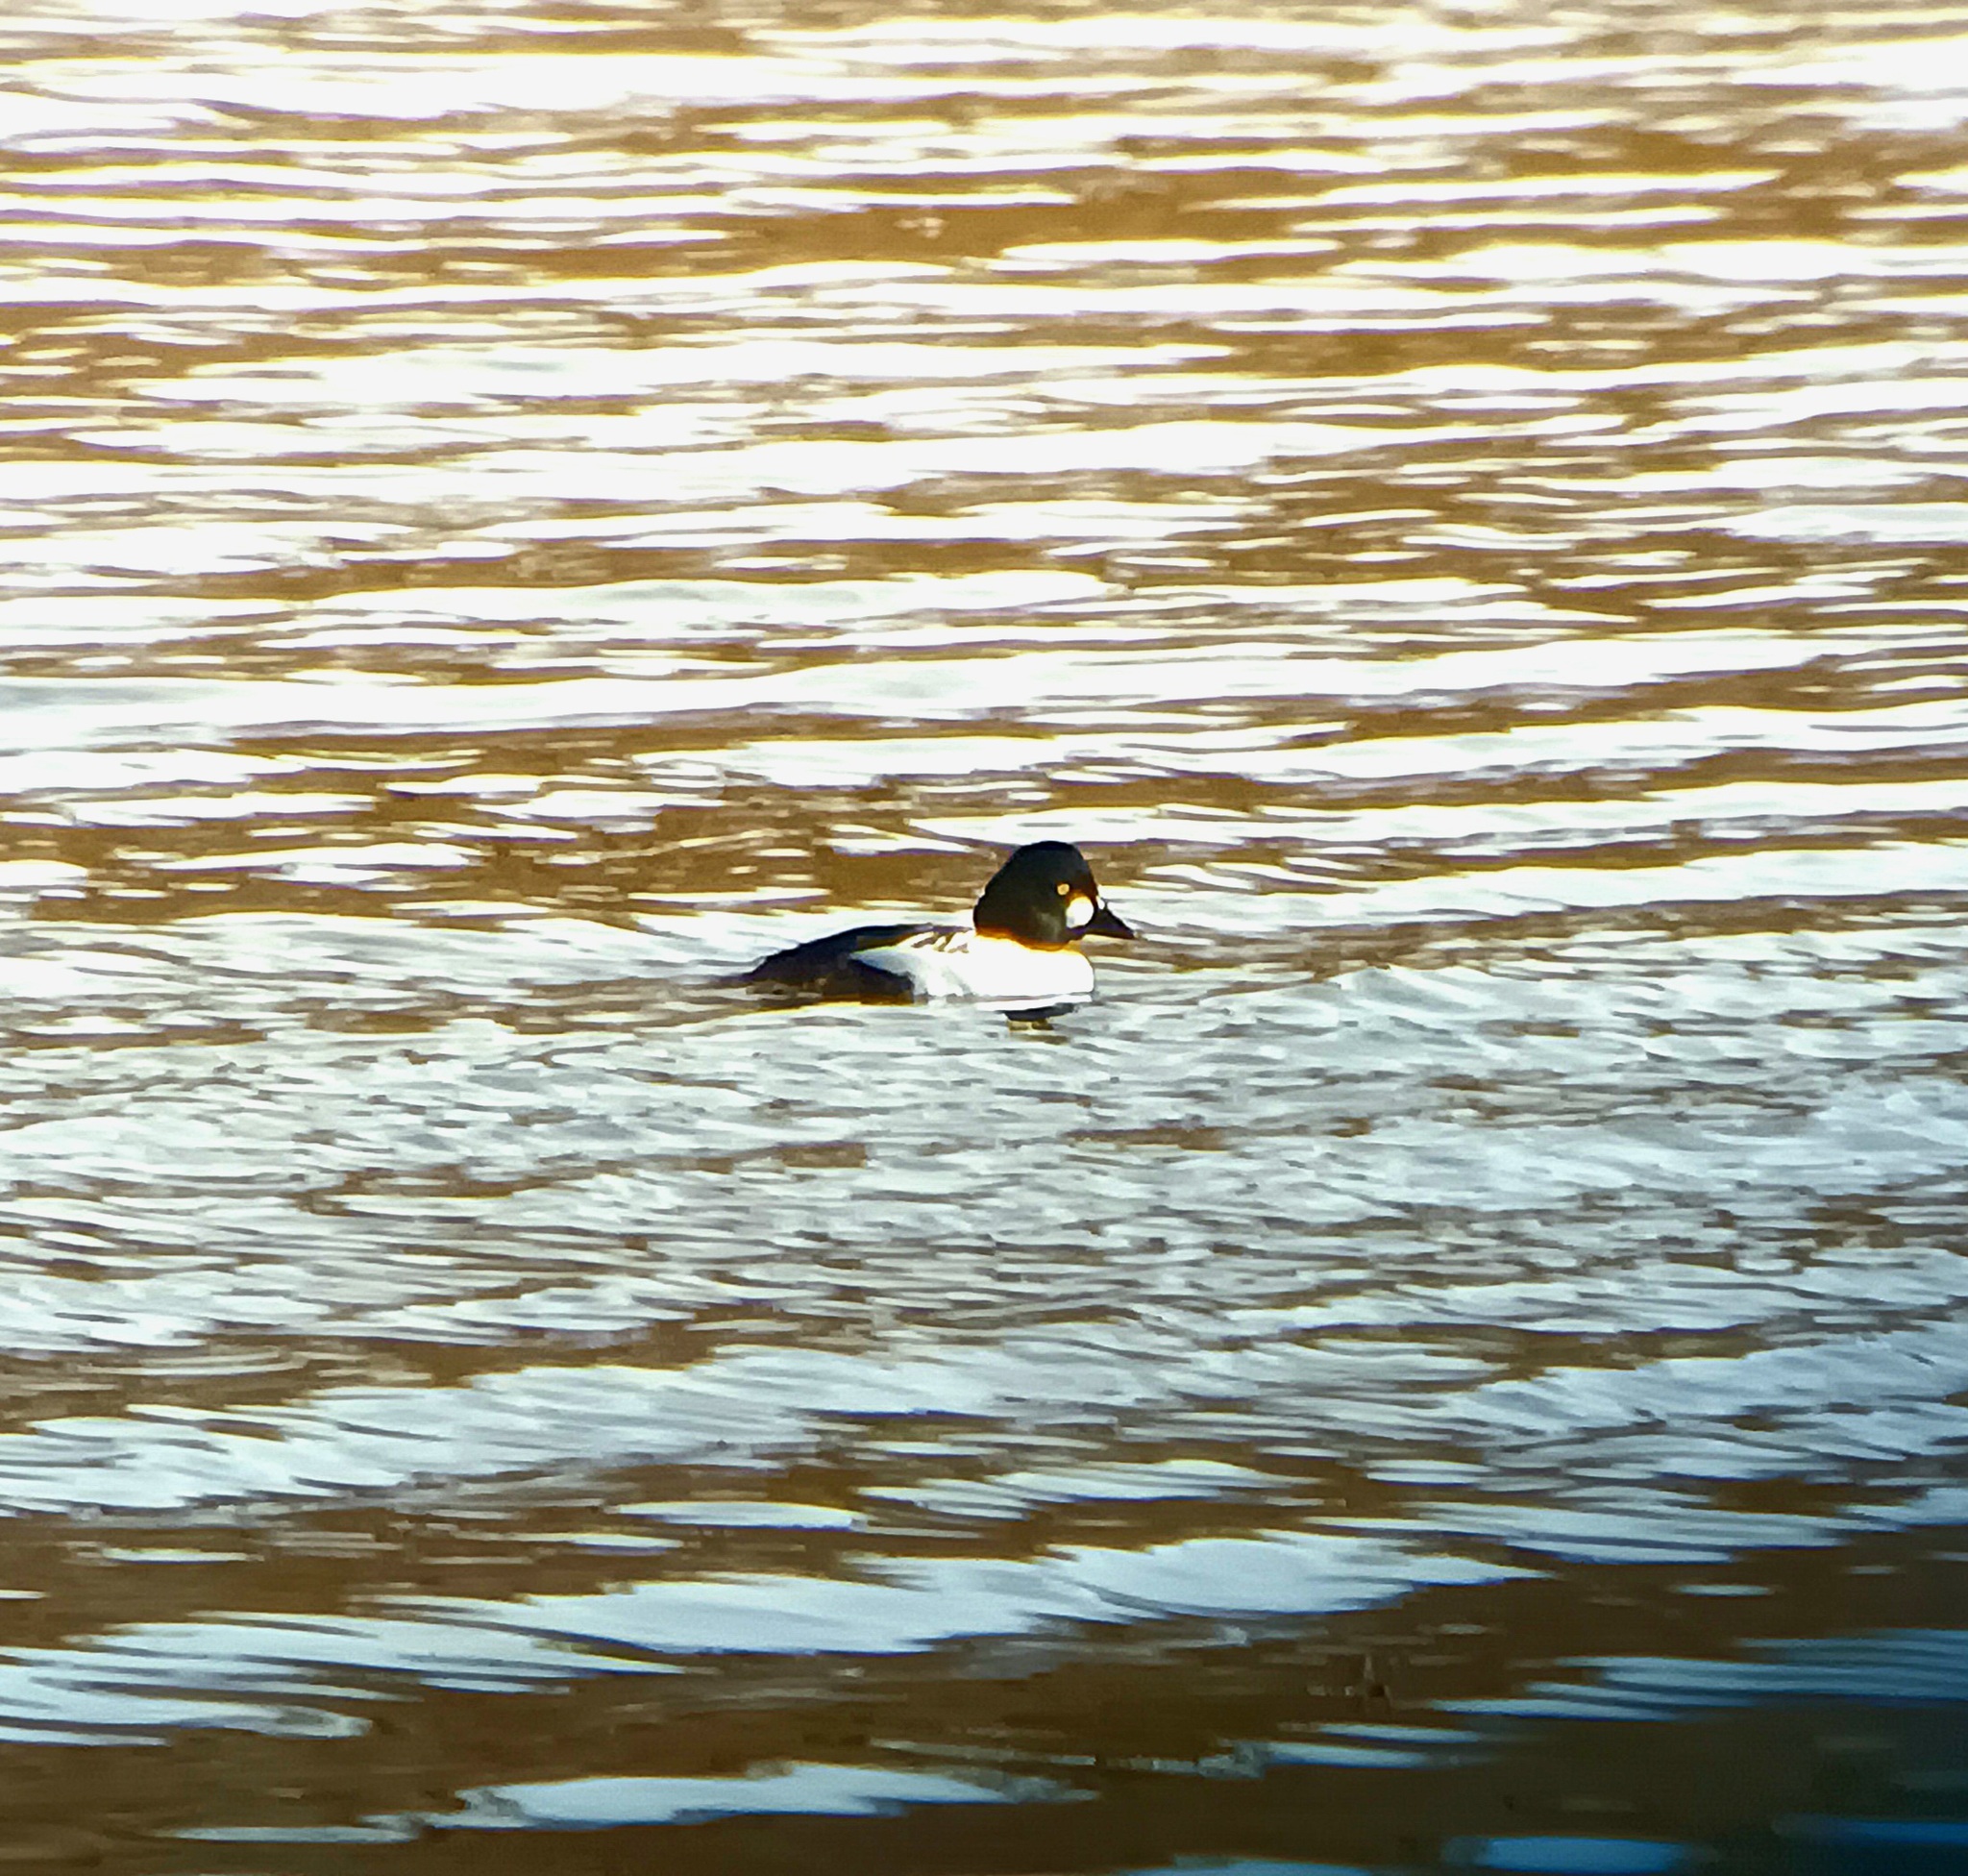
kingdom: Animalia
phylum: Chordata
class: Aves
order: Anseriformes
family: Anatidae
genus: Bucephala
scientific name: Bucephala clangula
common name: Common goldeneye
